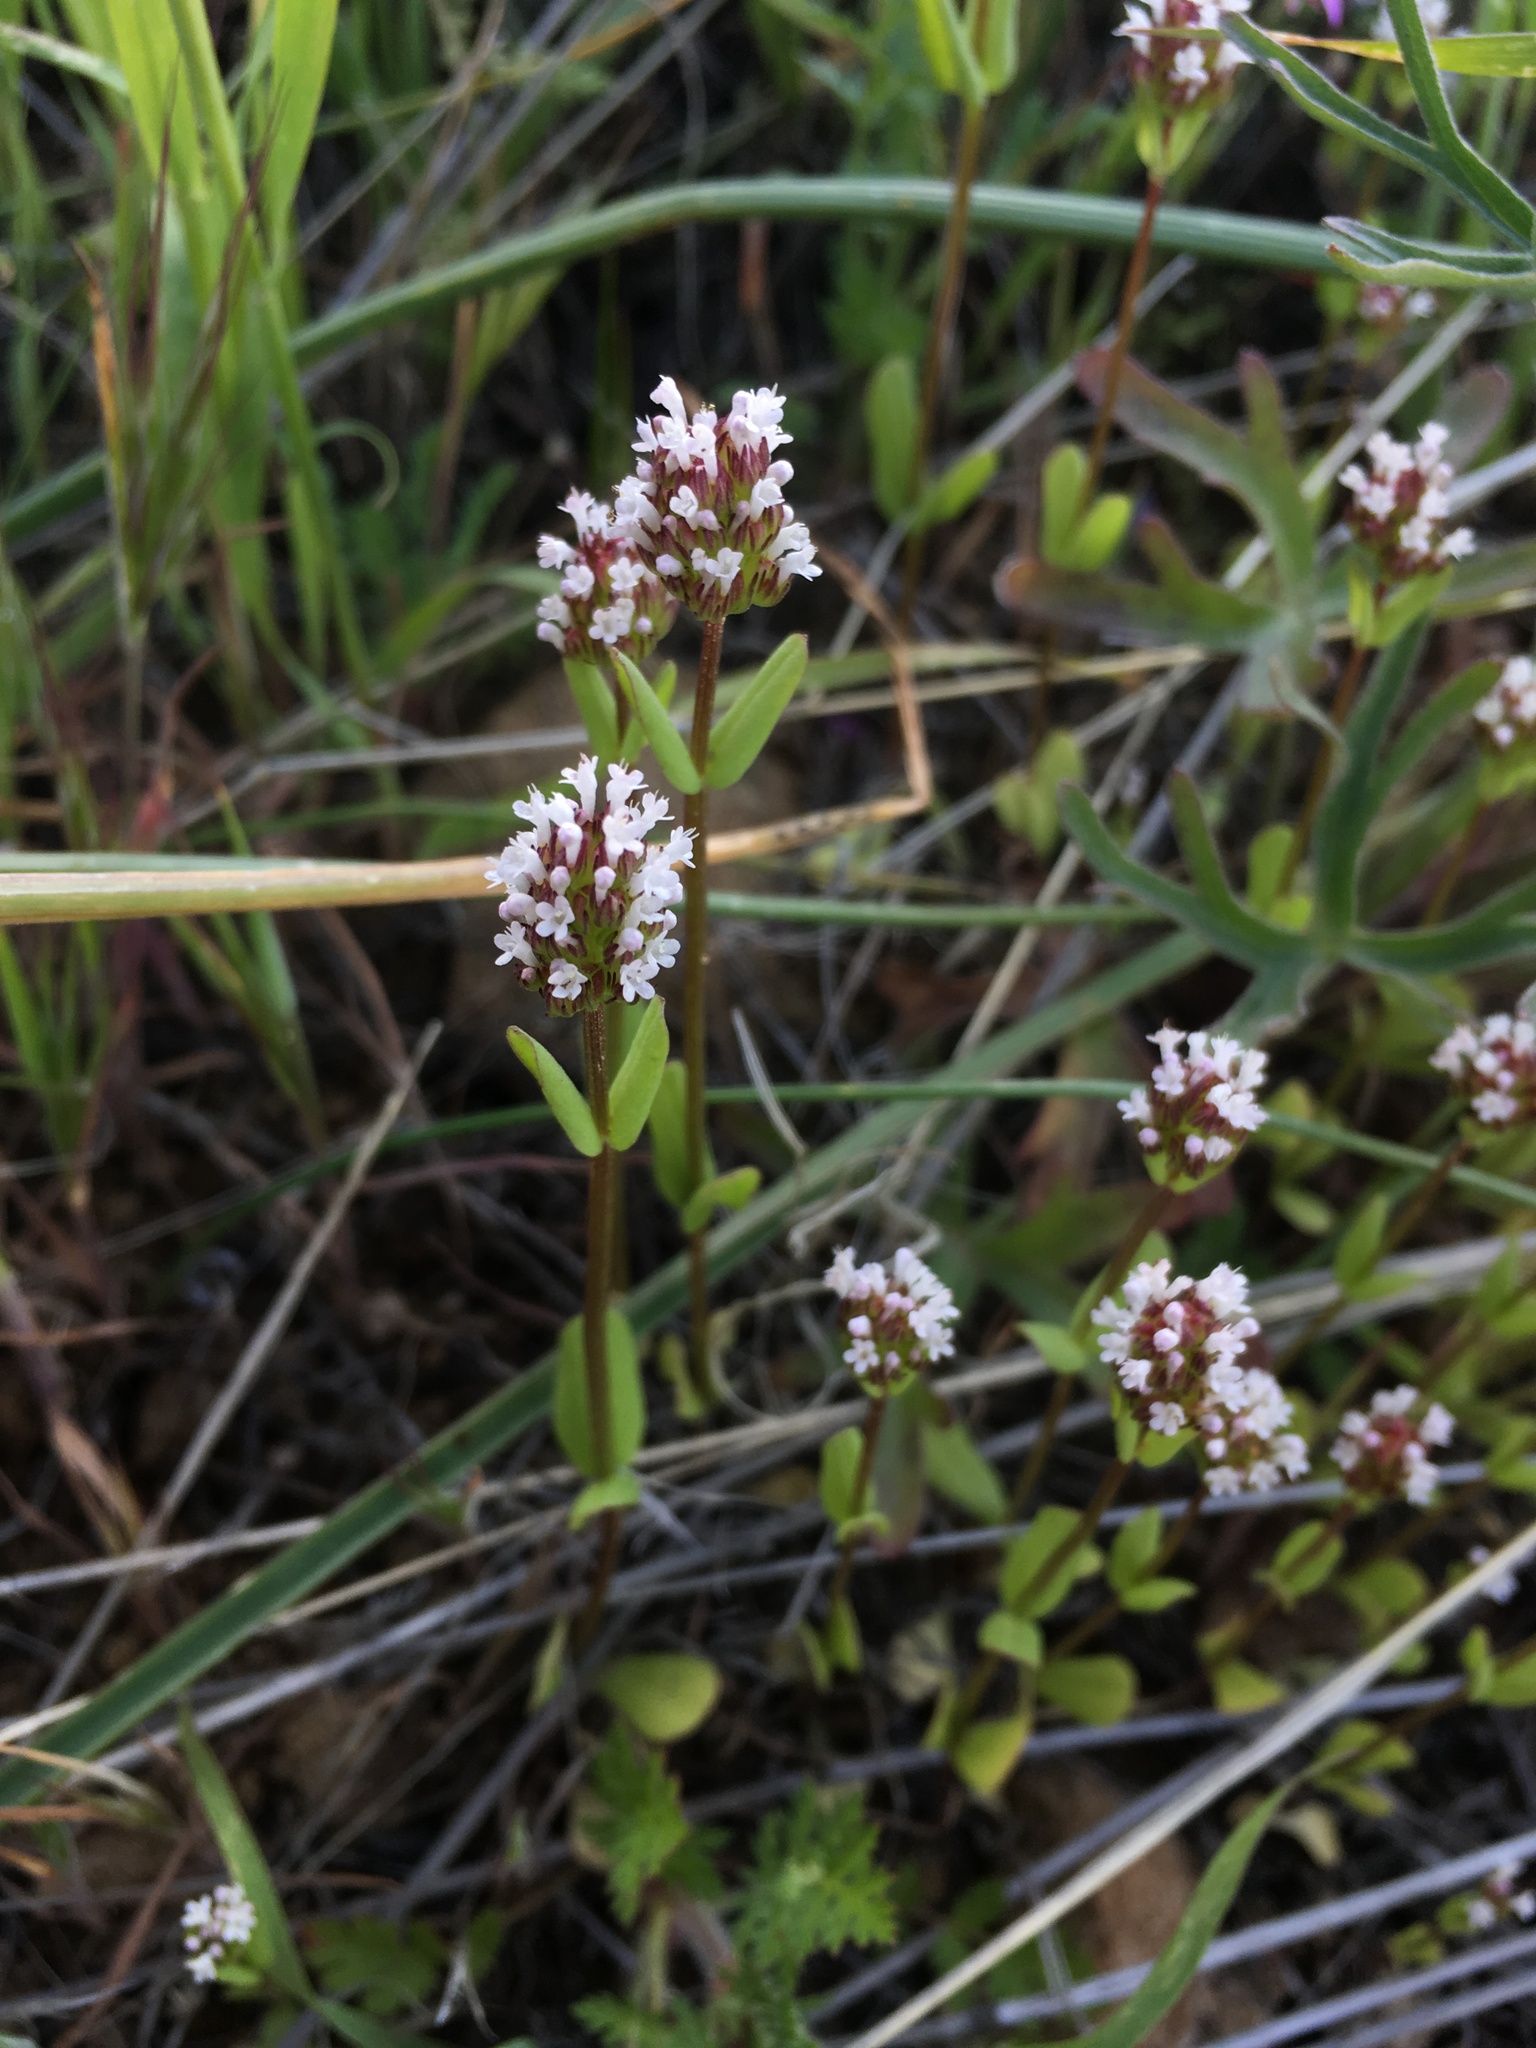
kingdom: Plantae
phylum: Tracheophyta
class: Magnoliopsida
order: Dipsacales
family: Caprifoliaceae
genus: Plectritis
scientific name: Plectritis macroptera
